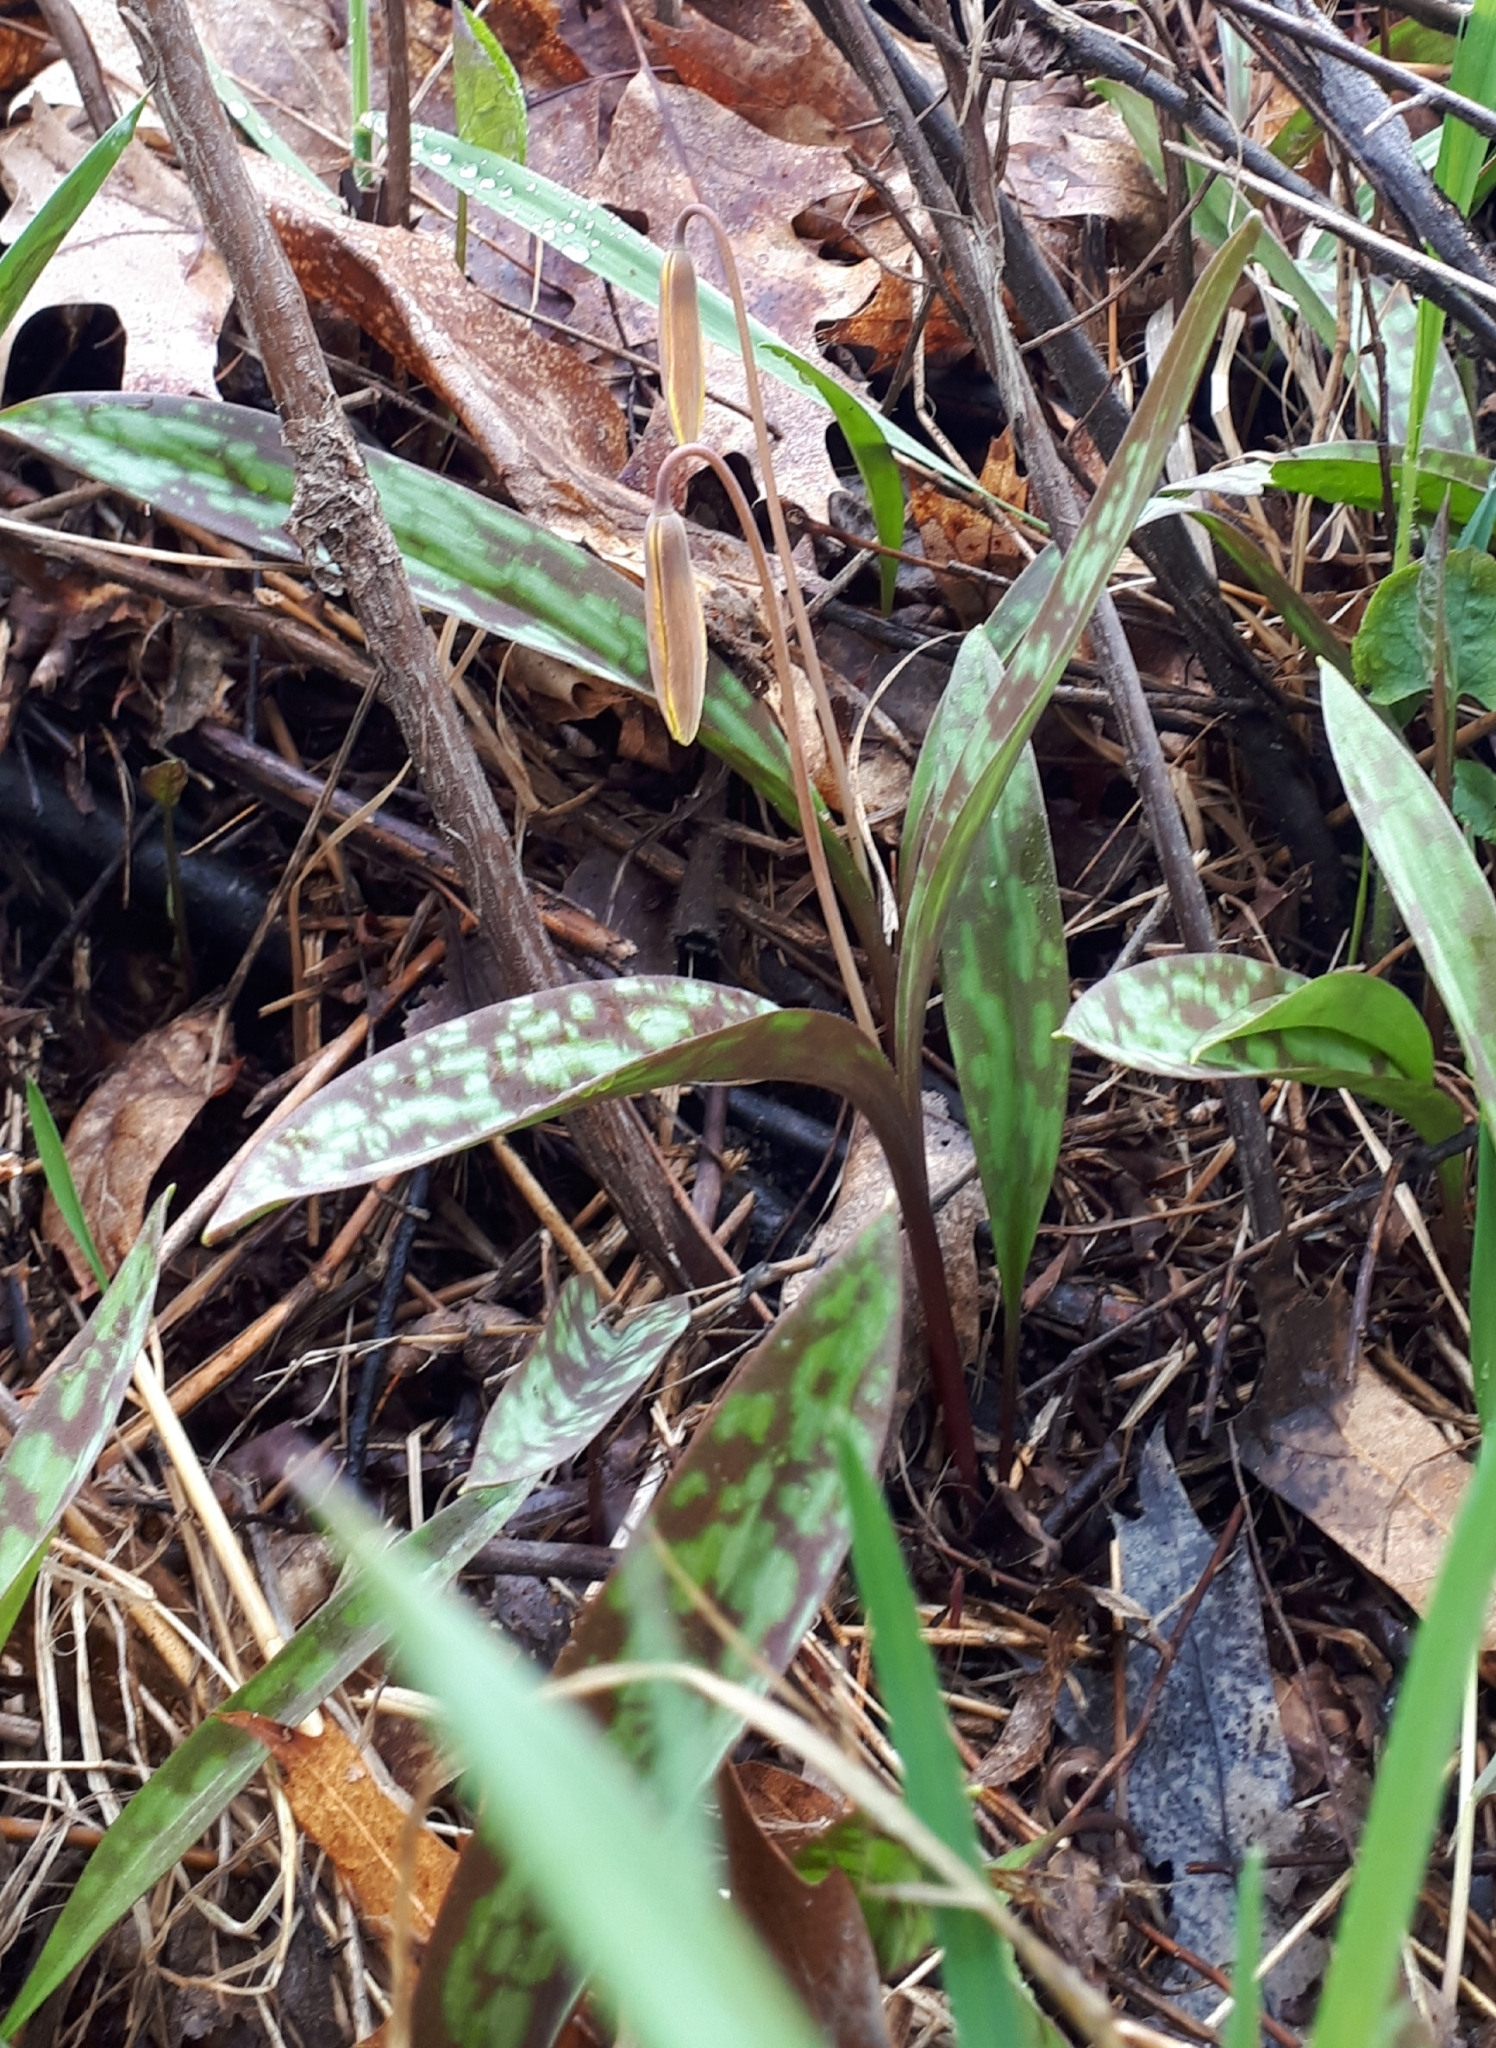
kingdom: Plantae
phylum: Tracheophyta
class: Liliopsida
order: Liliales
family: Liliaceae
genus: Erythronium
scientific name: Erythronium americanum
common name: Yellow adder's-tongue
